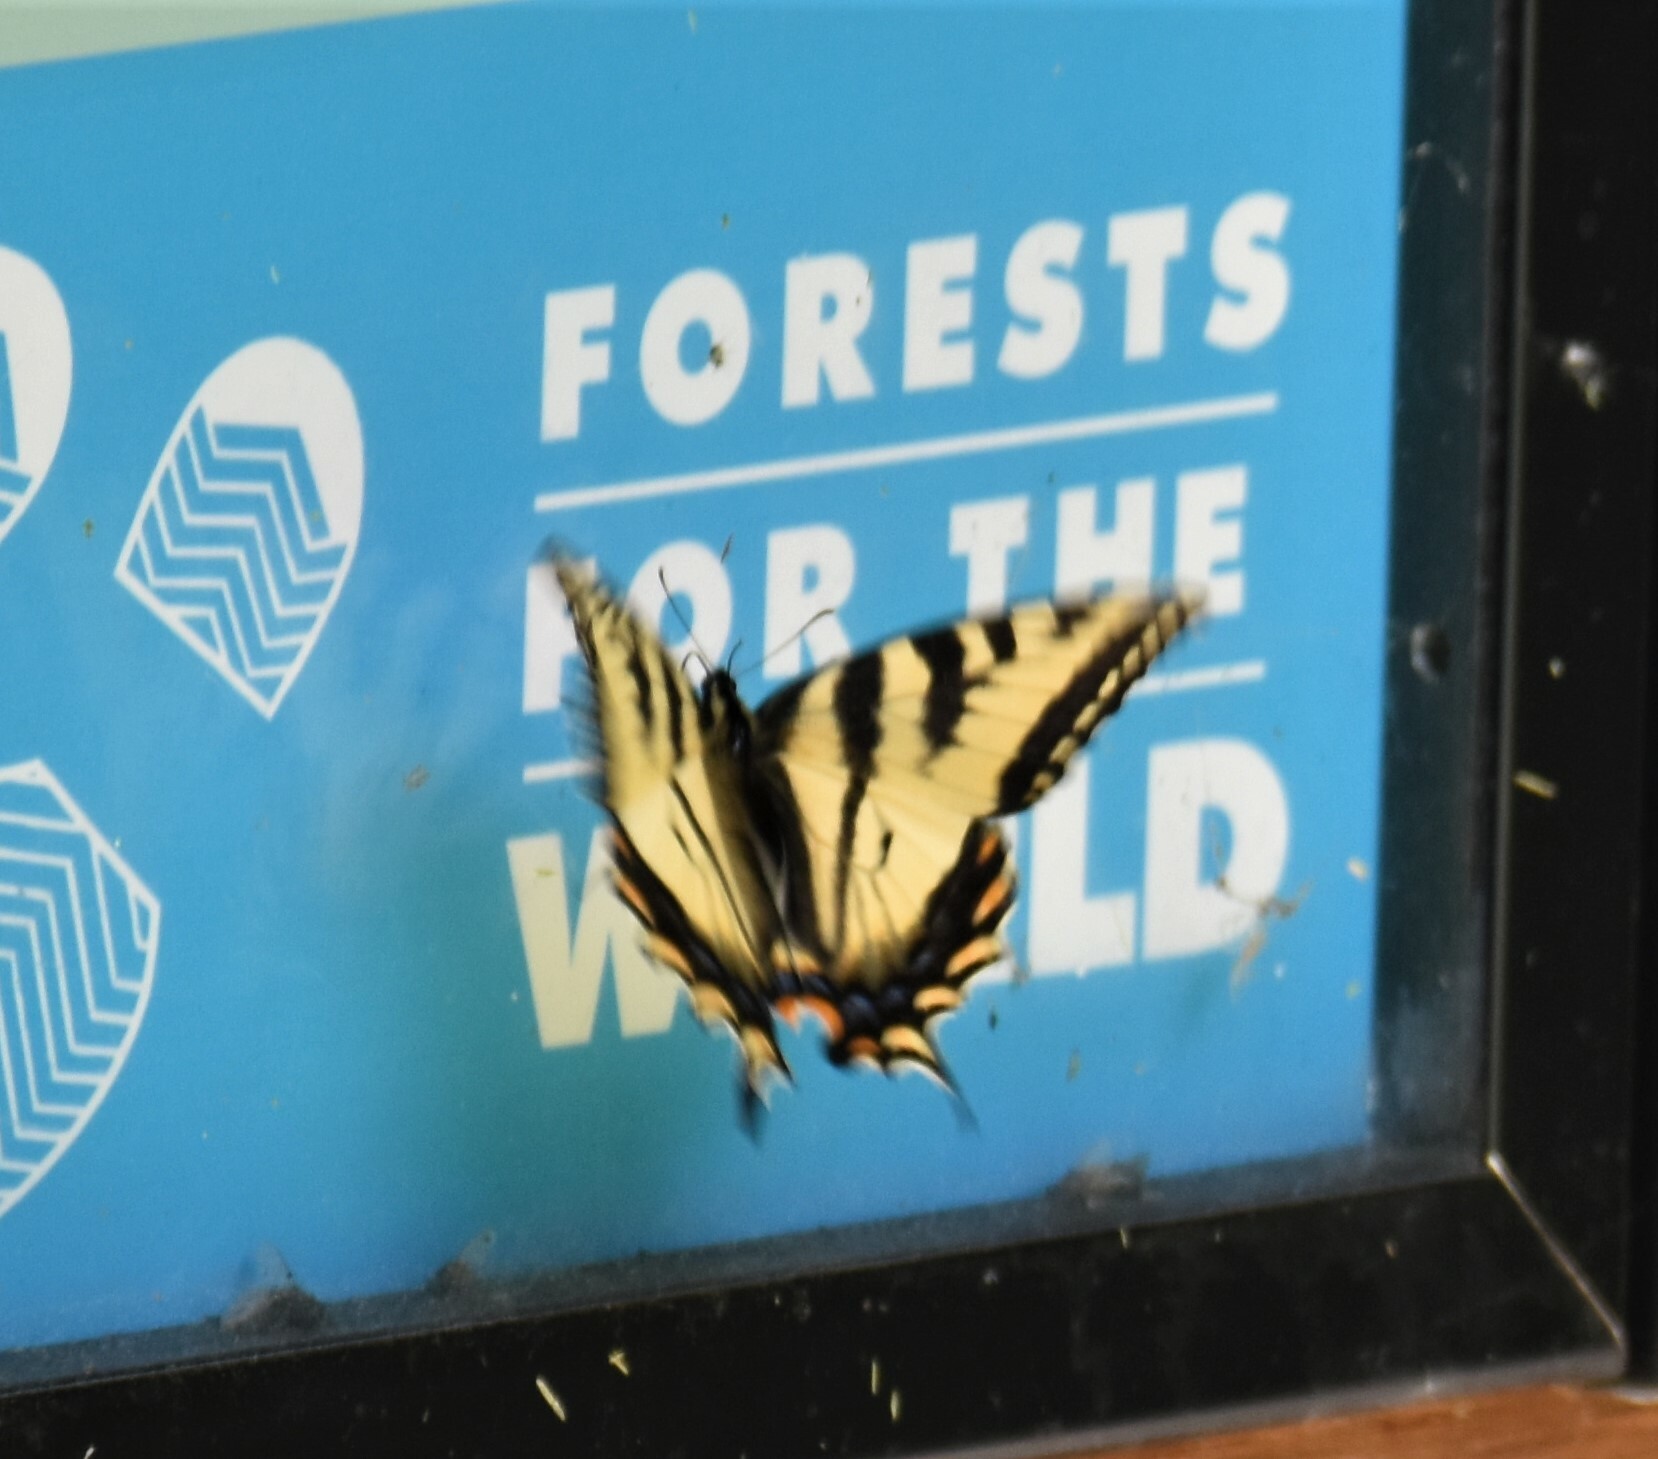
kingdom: Animalia
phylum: Arthropoda
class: Insecta
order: Lepidoptera
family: Papilionidae
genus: Papilio
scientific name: Papilio canadensis
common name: Canadian tiger swallowtail
